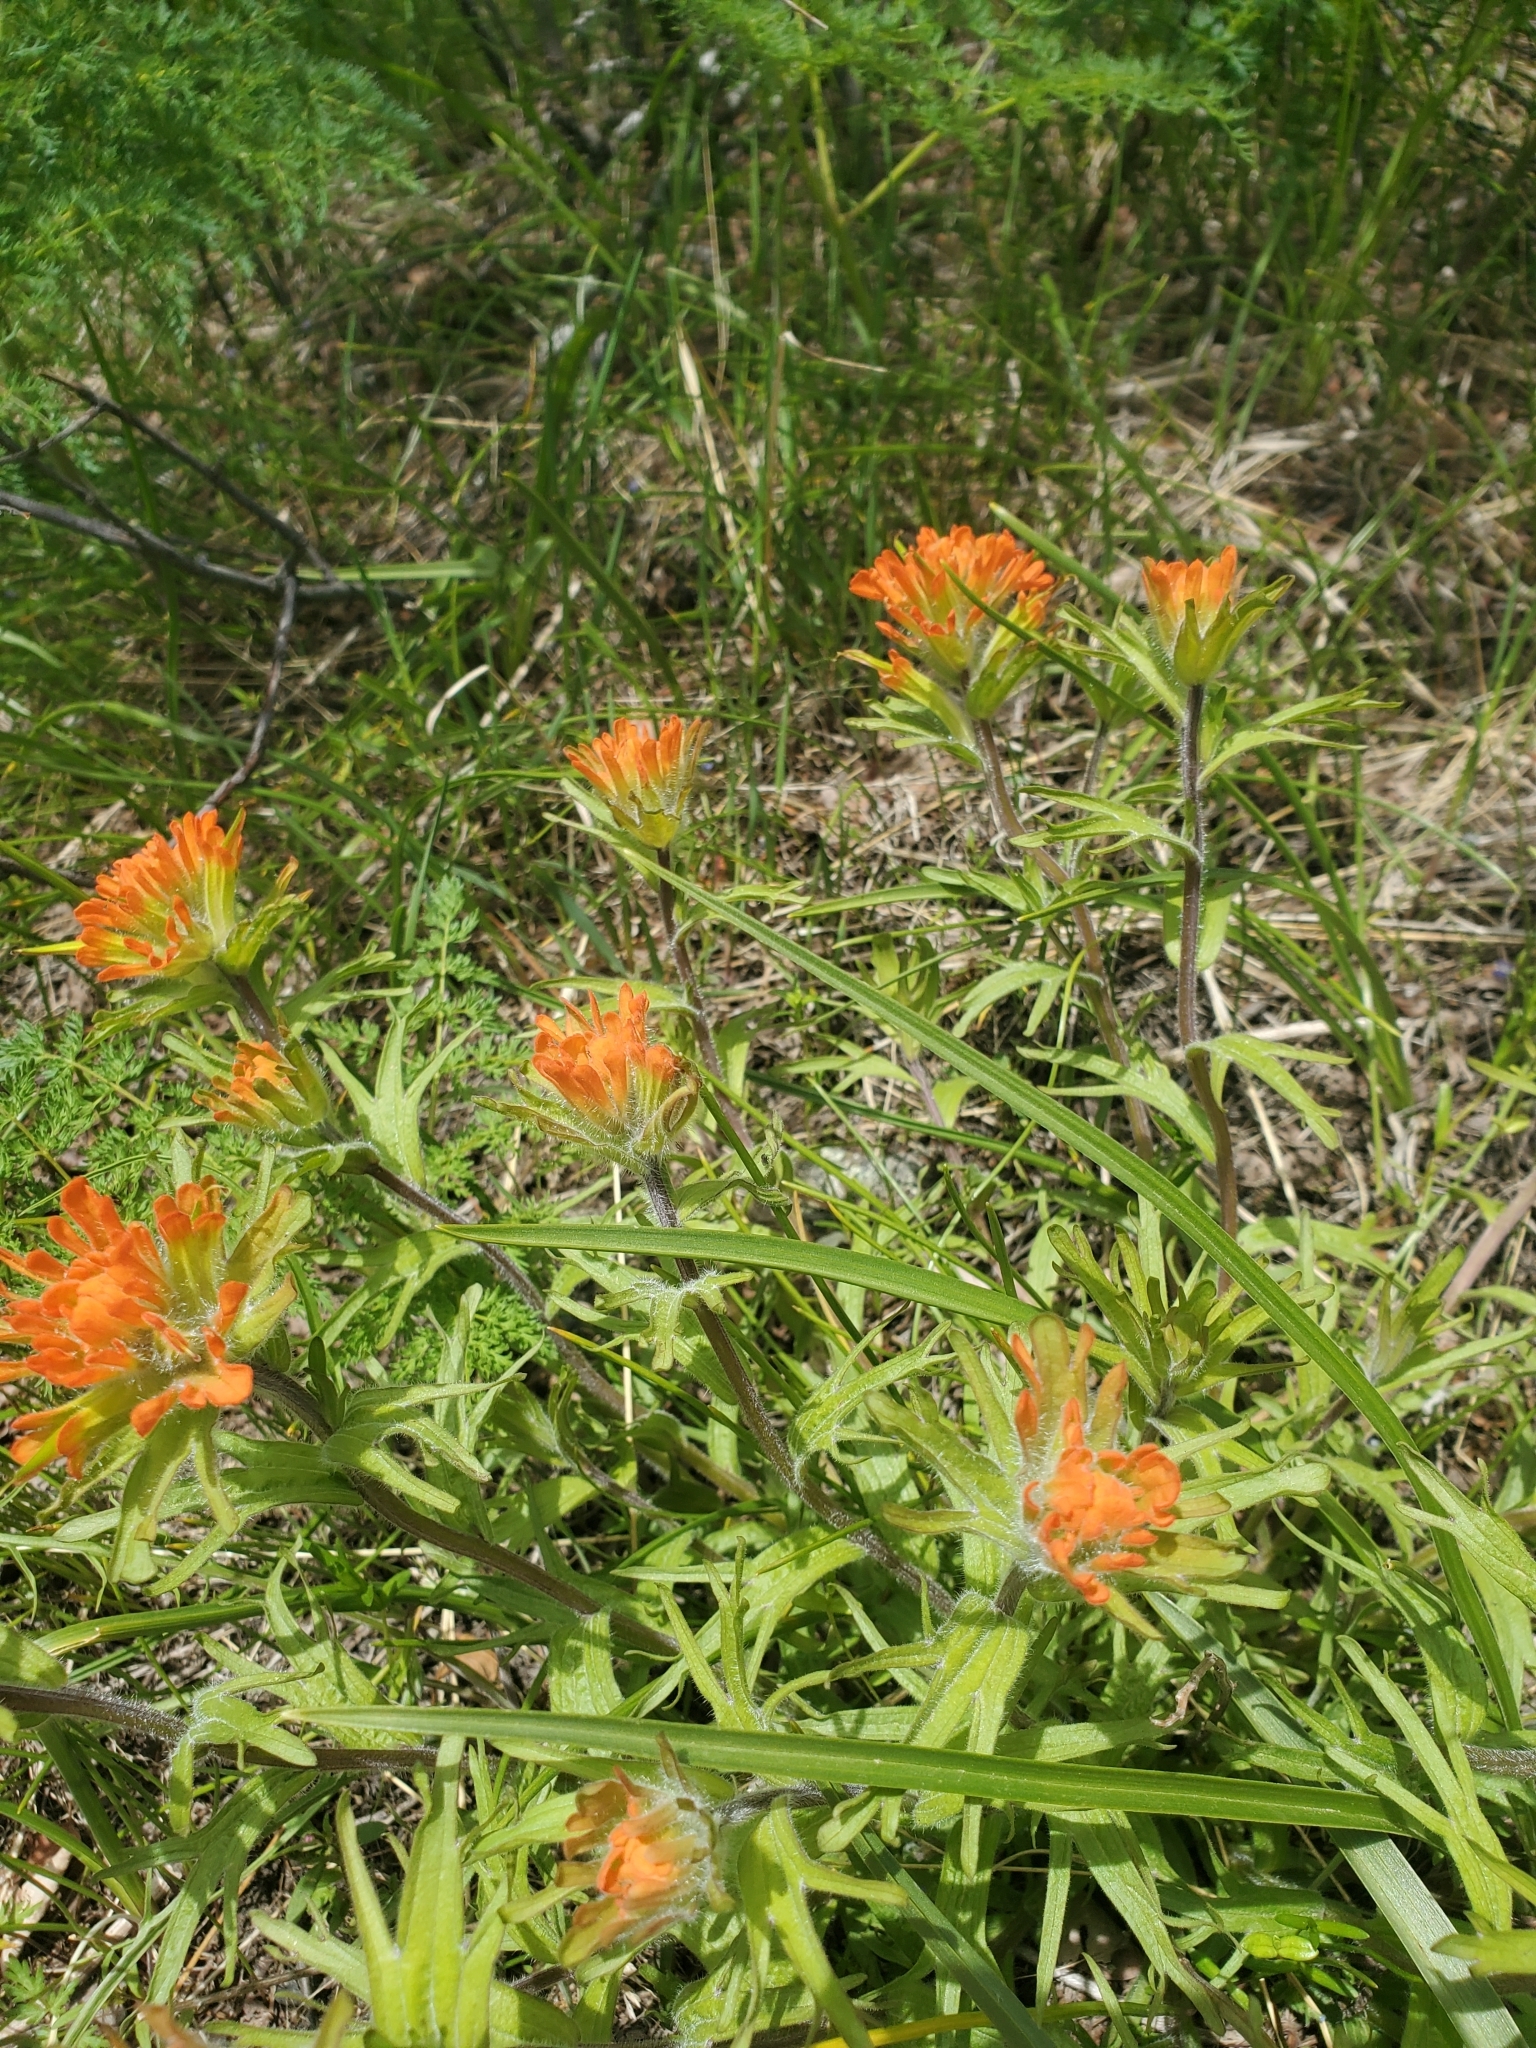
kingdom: Plantae
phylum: Tracheophyta
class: Magnoliopsida
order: Lamiales
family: Orobanchaceae
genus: Castilleja
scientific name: Castilleja hispida
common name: Bristly paintbrush
